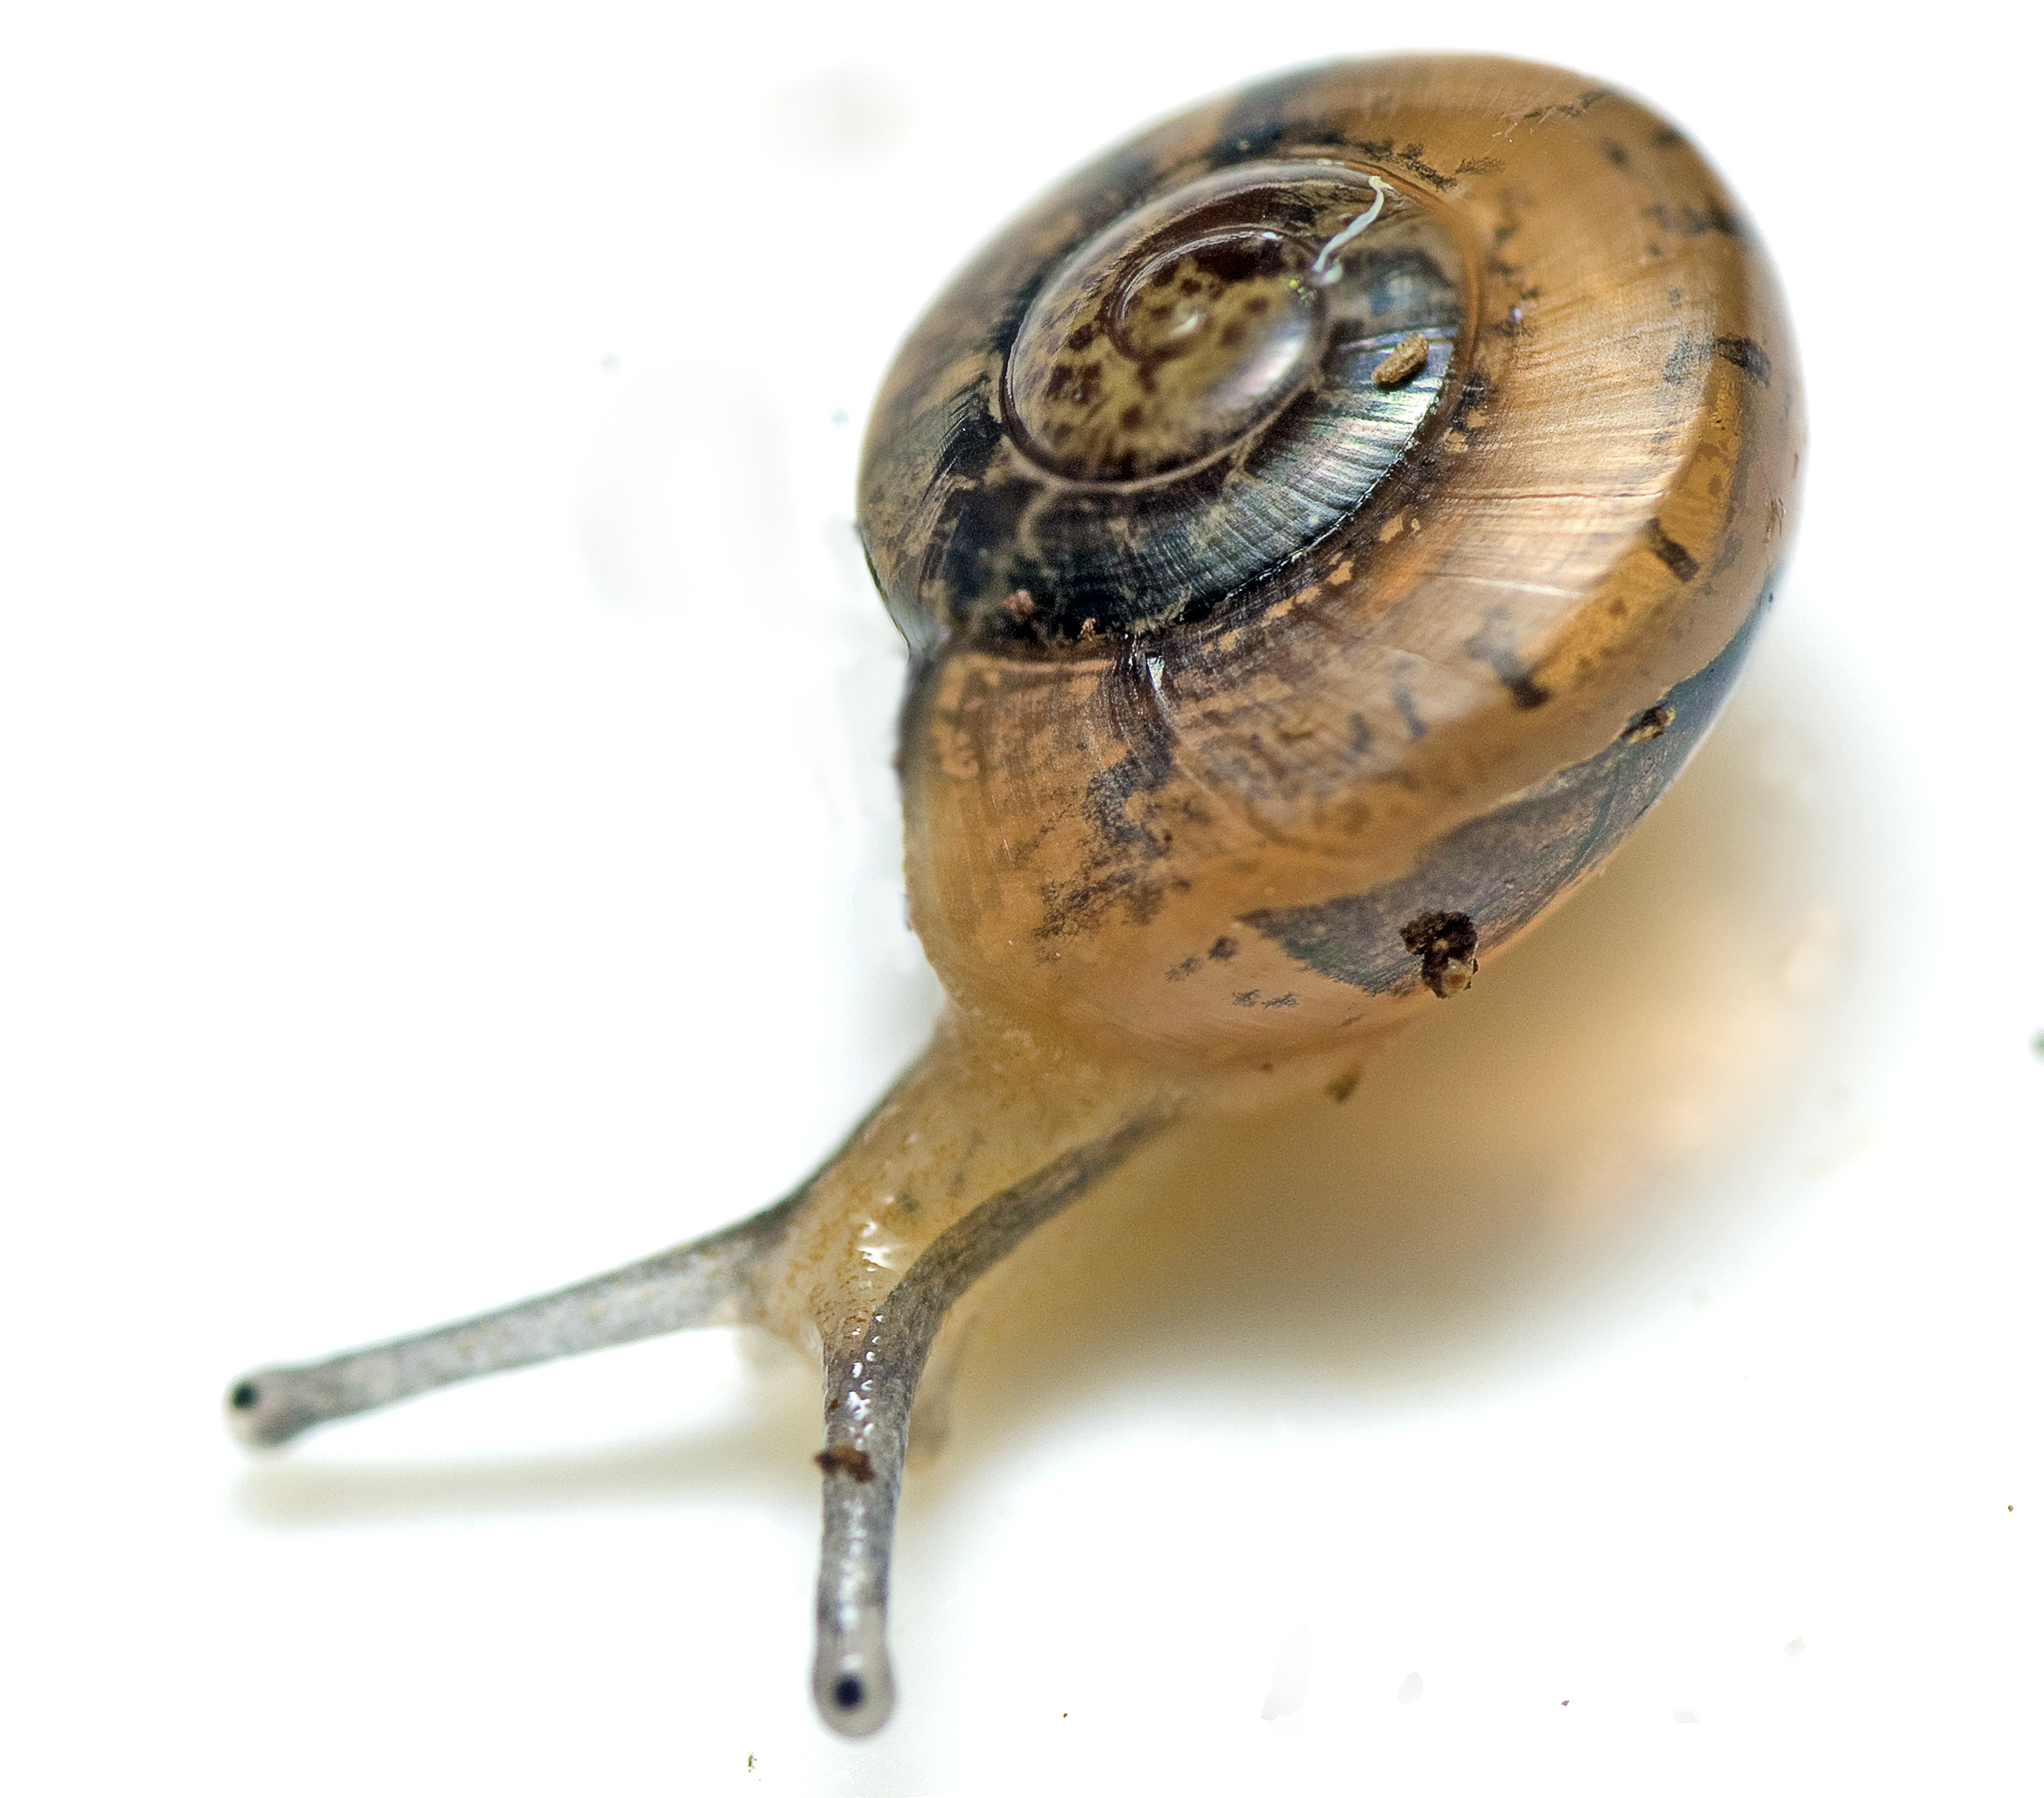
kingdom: Animalia
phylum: Mollusca
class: Gastropoda
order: Stylommatophora
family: Helicarionidae
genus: Nitor
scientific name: Nitor pudibundus
